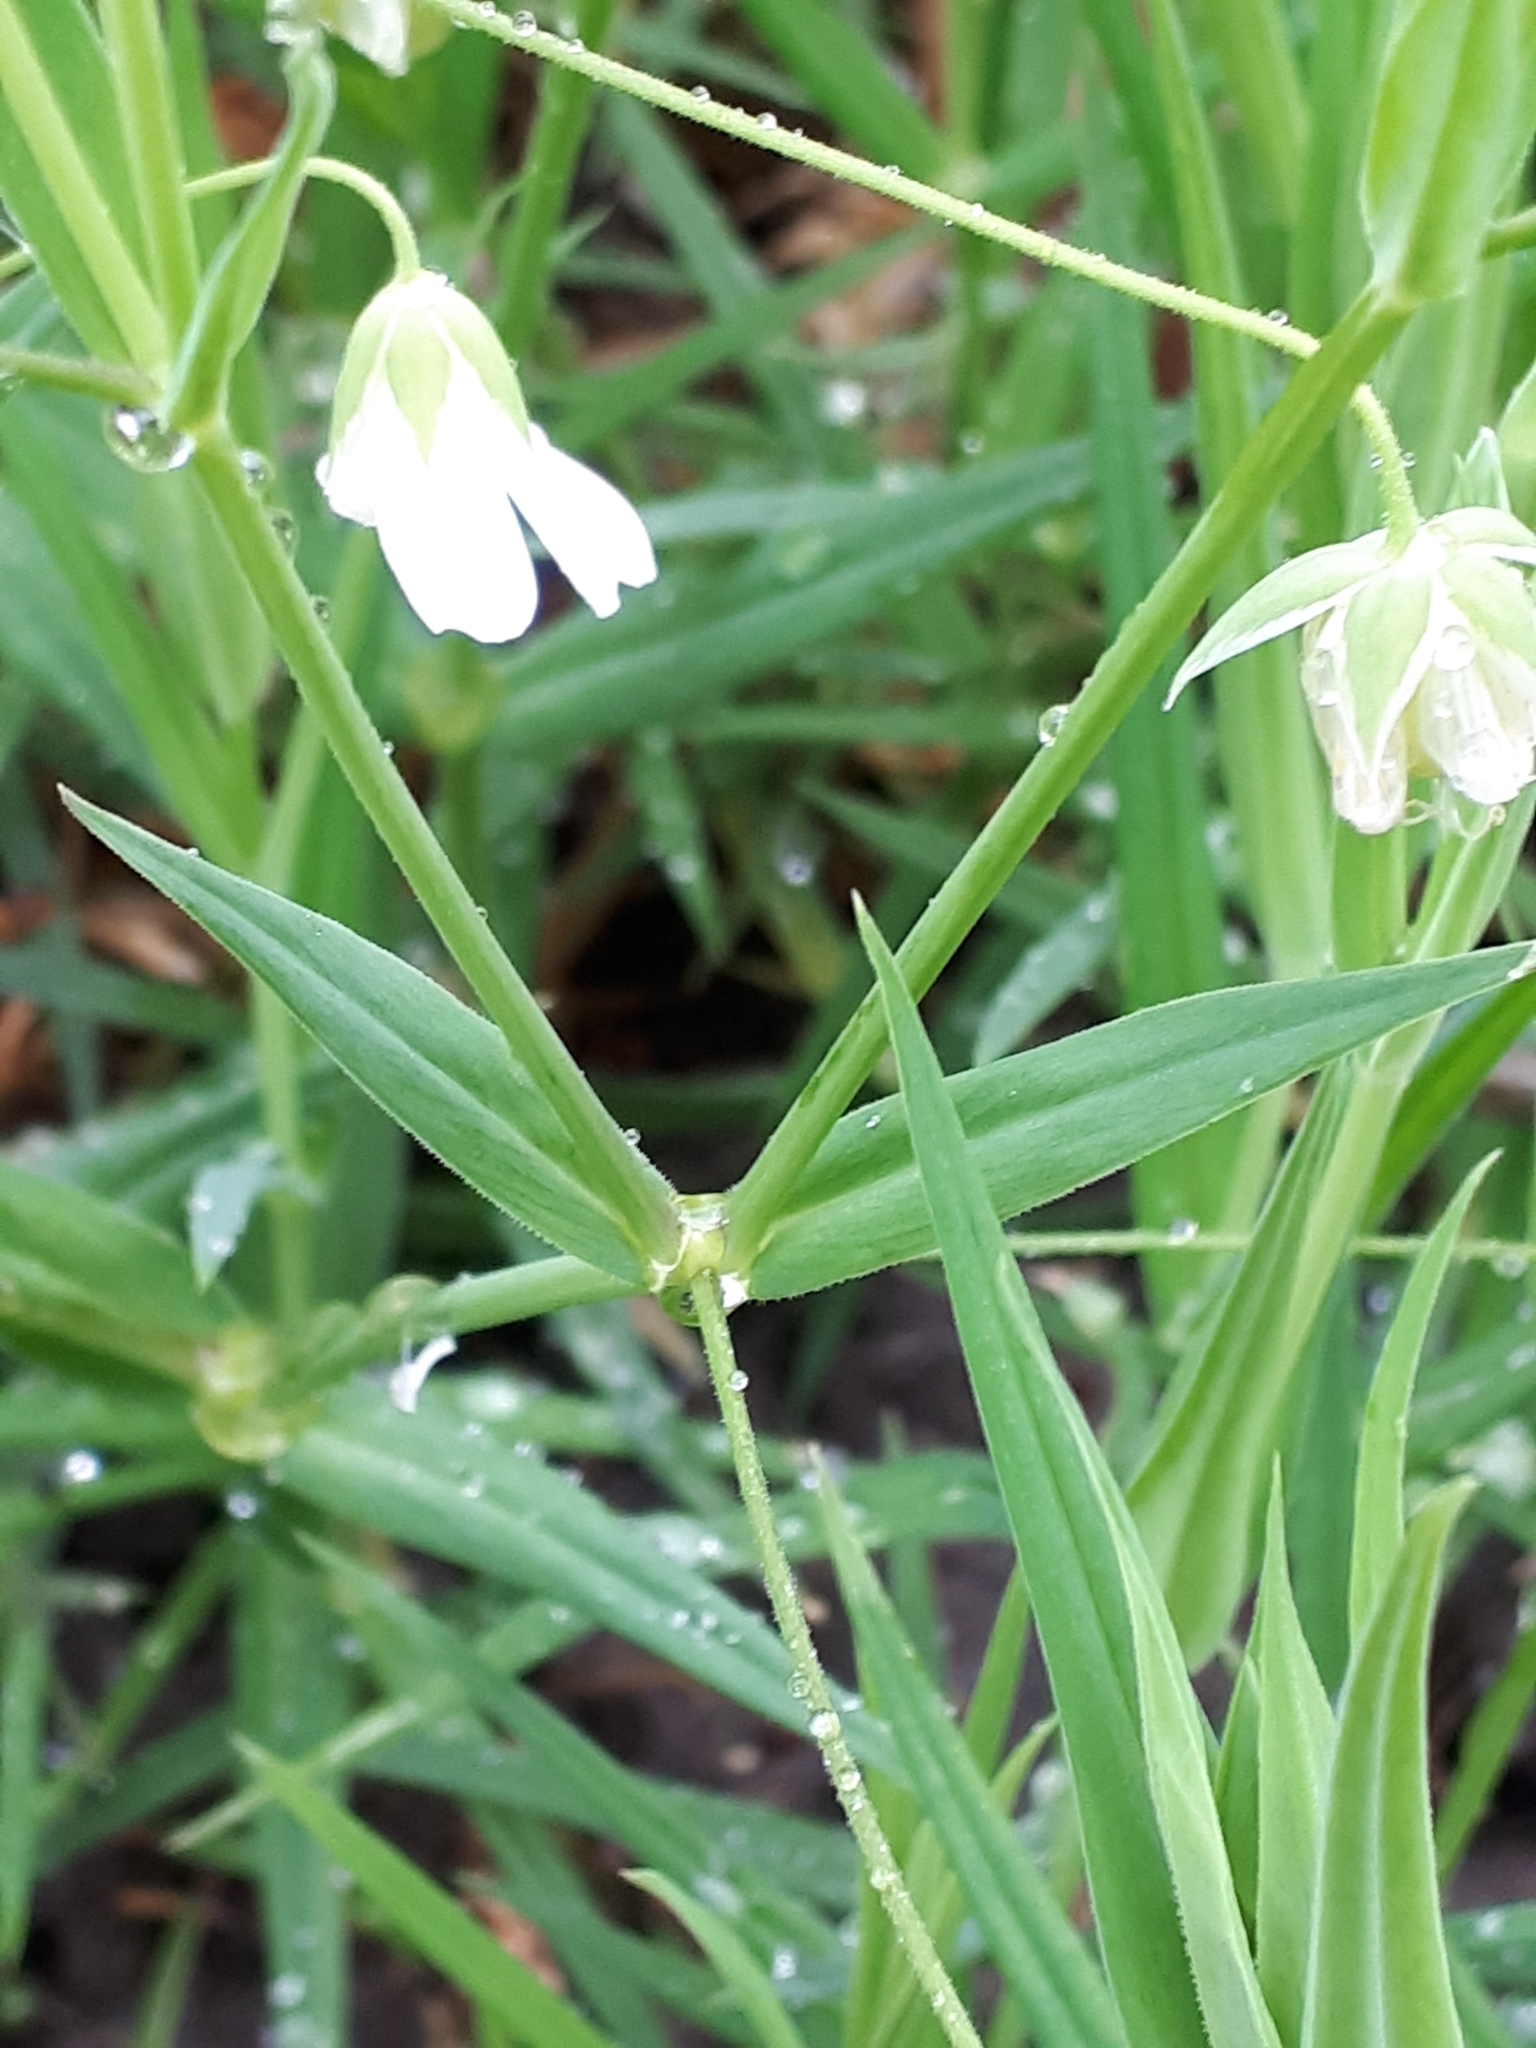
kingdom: Plantae
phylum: Tracheophyta
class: Magnoliopsida
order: Caryophyllales
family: Caryophyllaceae
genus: Rabelera
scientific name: Rabelera holostea
